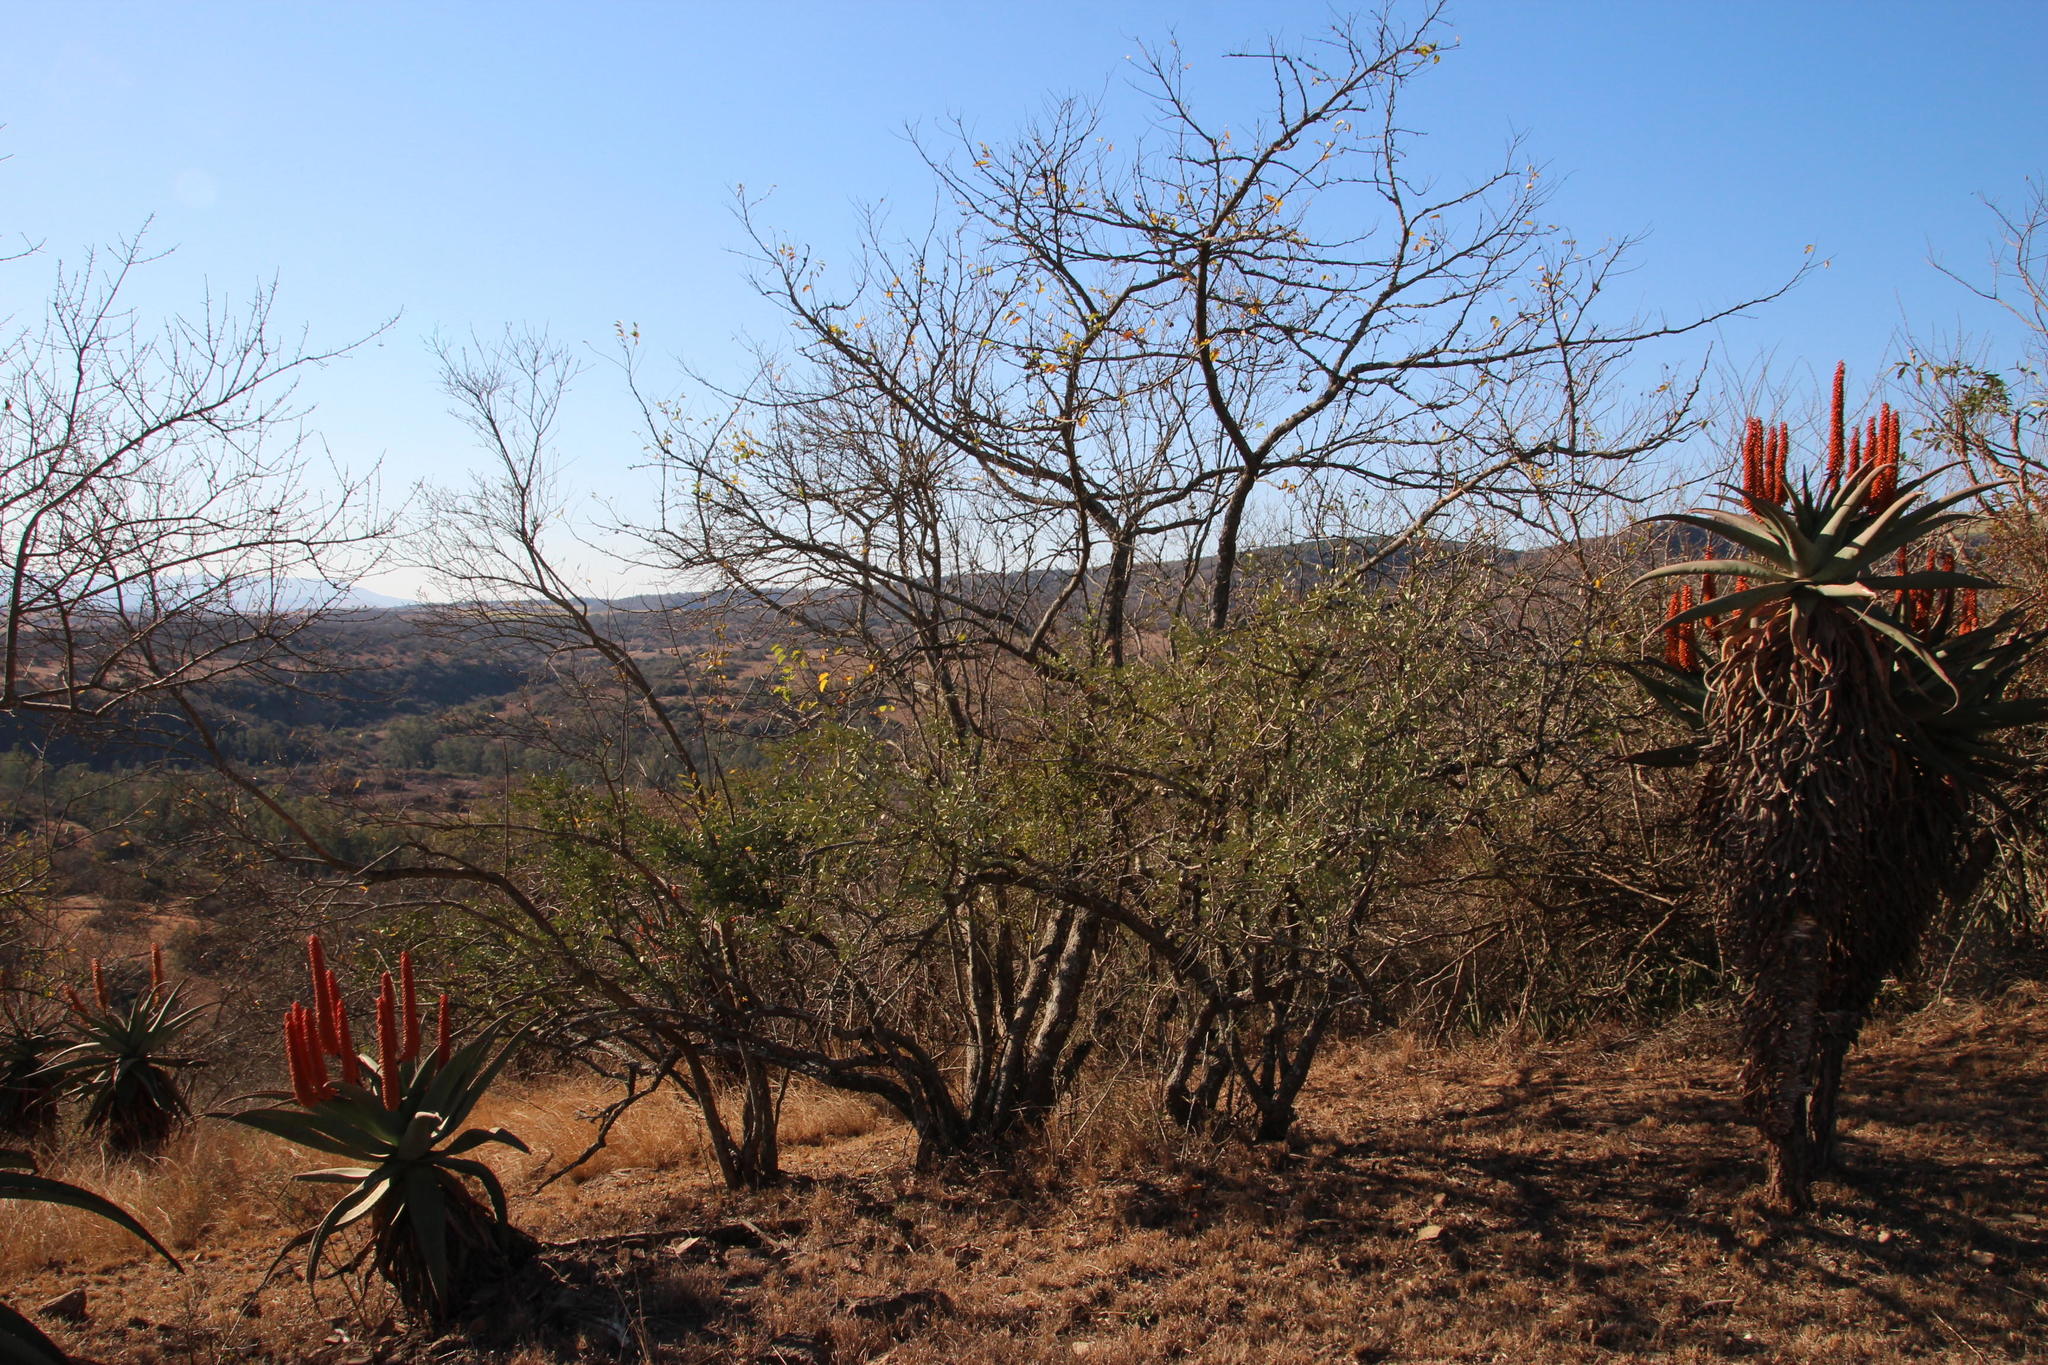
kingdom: Plantae
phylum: Tracheophyta
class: Magnoliopsida
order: Rosales
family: Rhamnaceae
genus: Ziziphus
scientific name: Ziziphus mucronata
